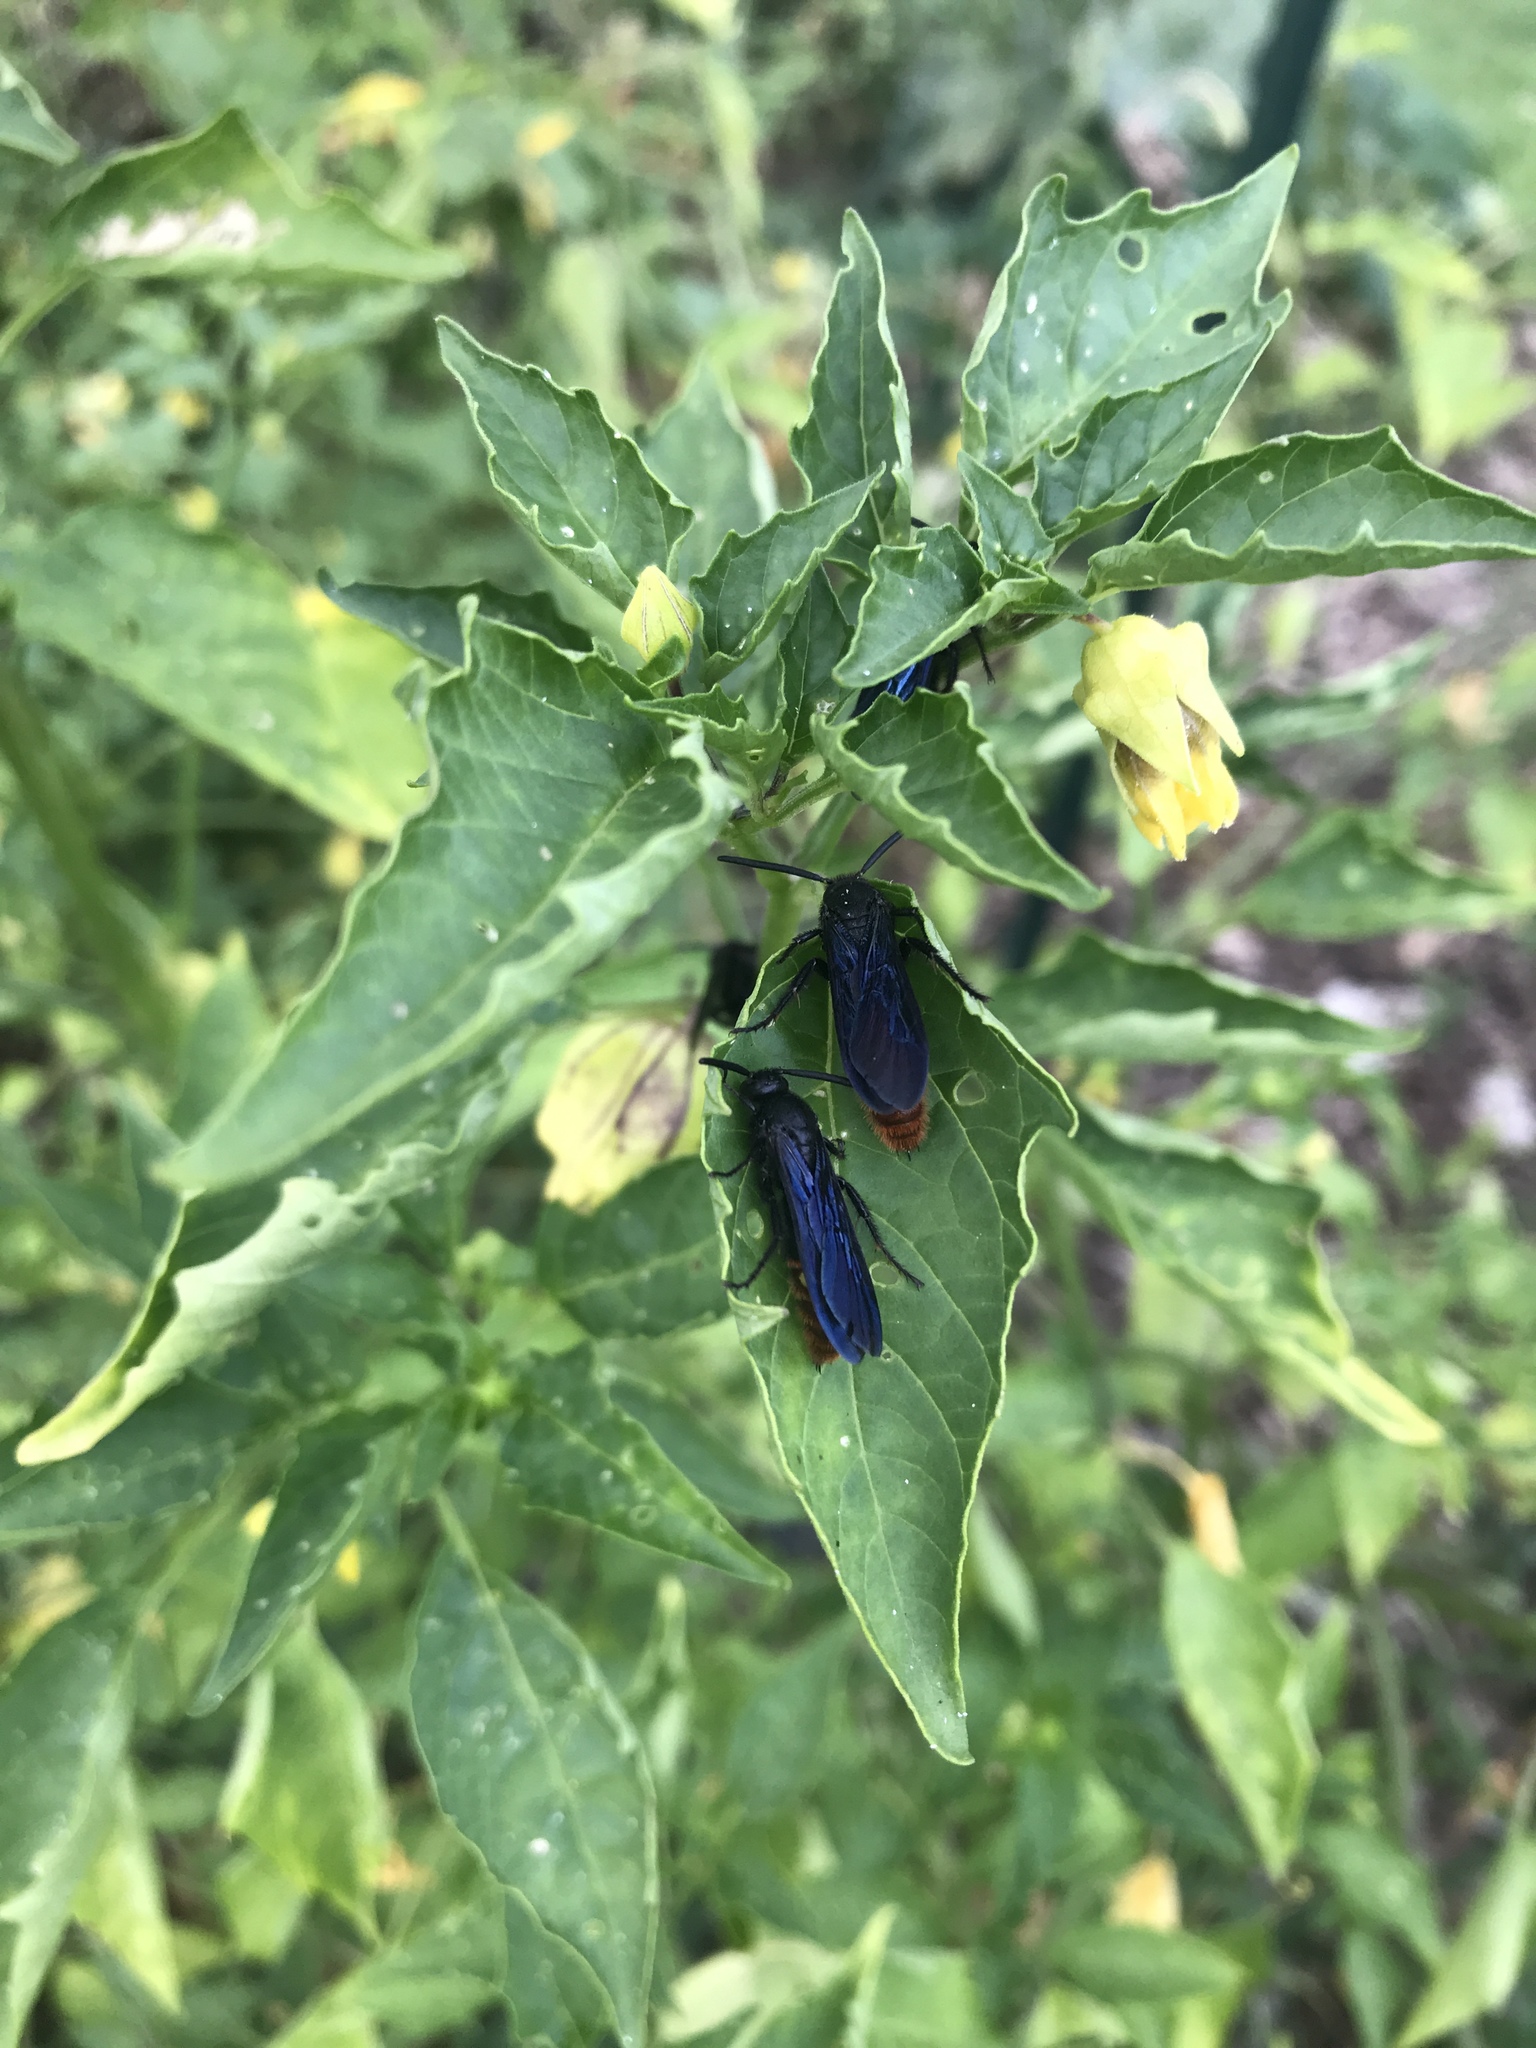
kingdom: Animalia
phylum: Arthropoda
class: Insecta
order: Hymenoptera
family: Scoliidae
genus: Scolia
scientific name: Scolia dubia
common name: Blue-winged scoliid wasp
